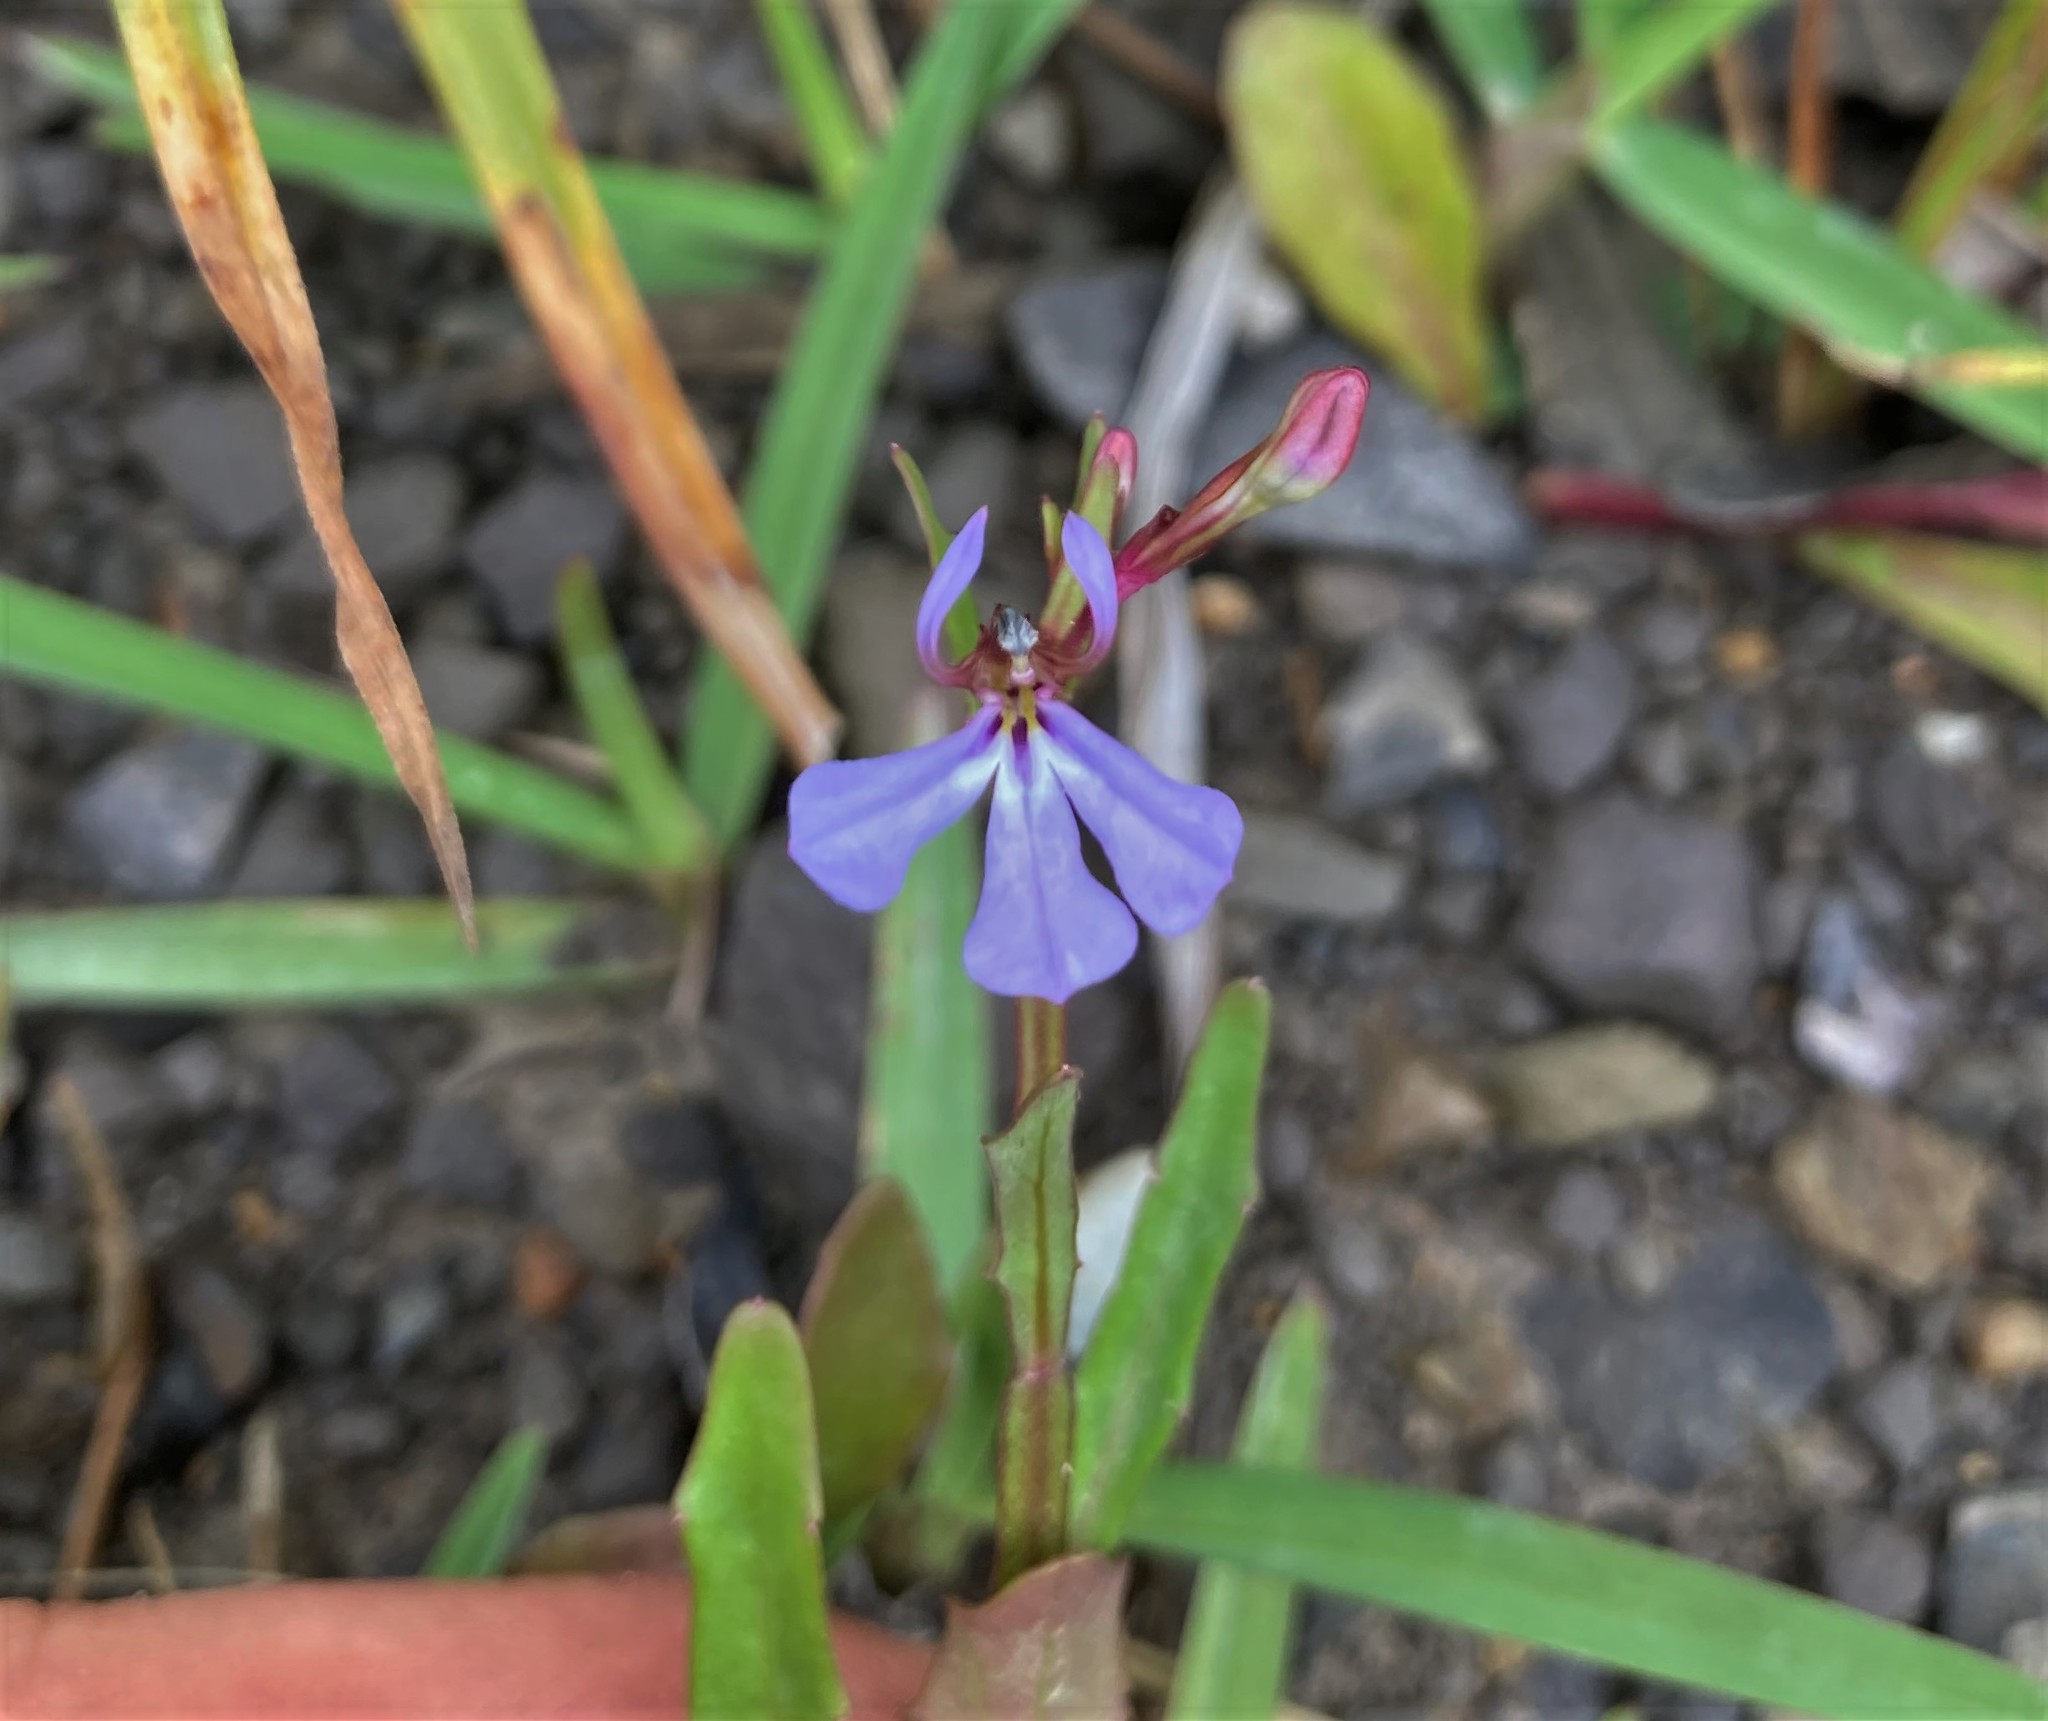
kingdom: Plantae
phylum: Tracheophyta
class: Magnoliopsida
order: Asterales
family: Campanulaceae
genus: Lobelia
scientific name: Lobelia anceps
